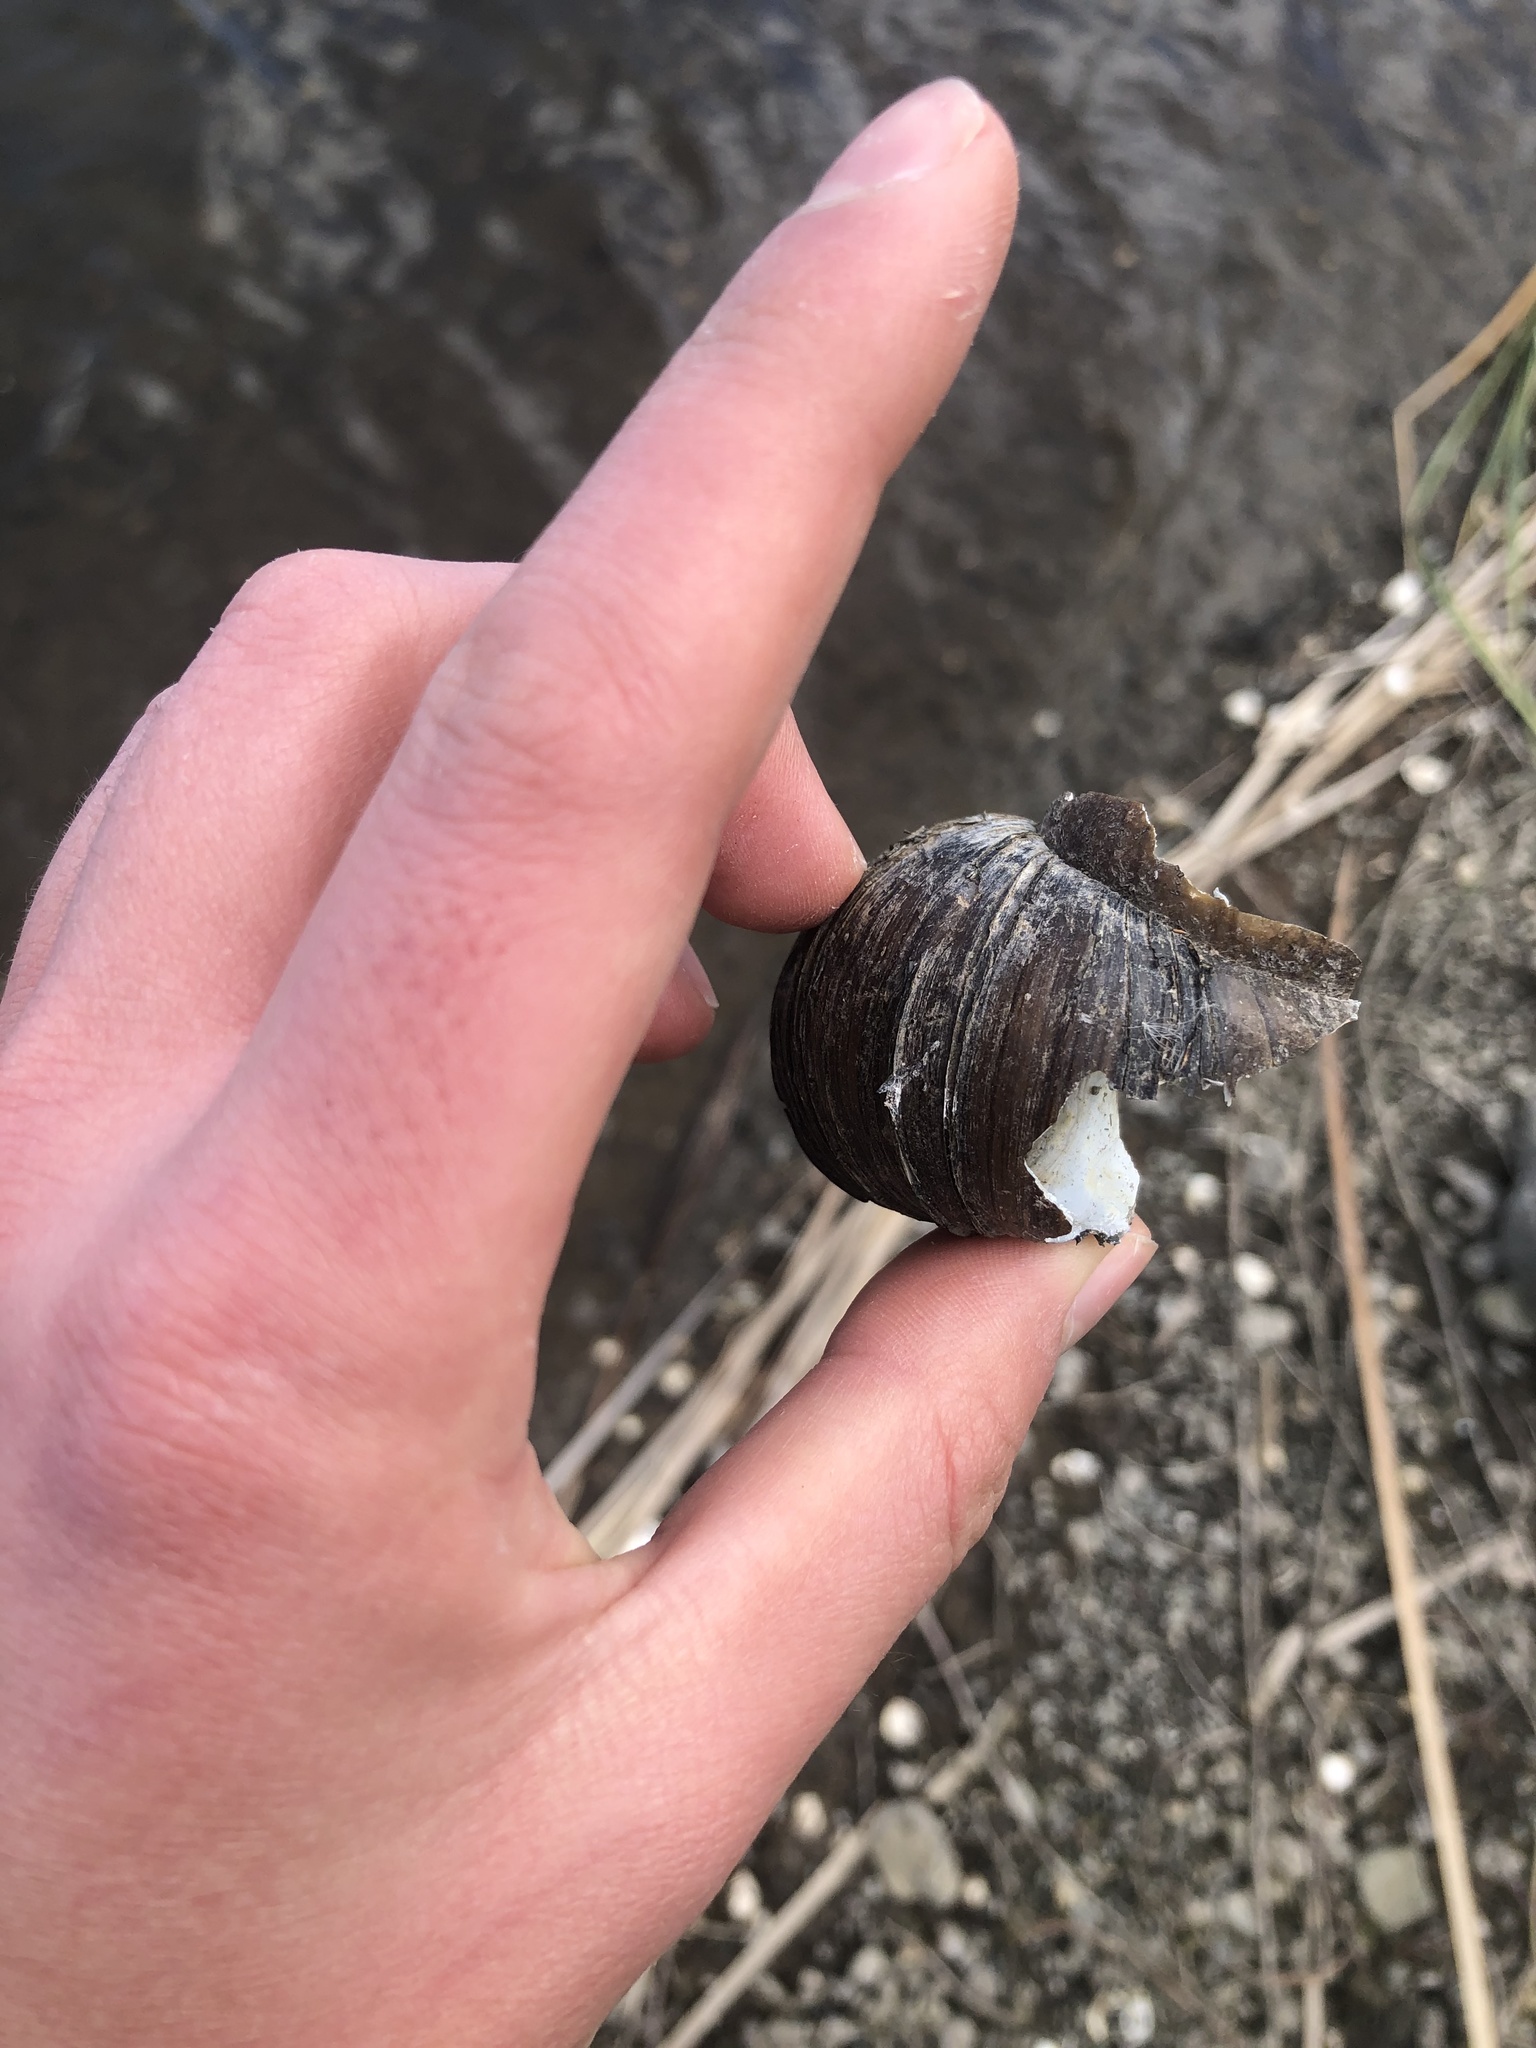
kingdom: Animalia
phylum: Mollusca
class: Gastropoda
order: Architaenioglossa
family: Viviparidae
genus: Cipangopaludina
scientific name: Cipangopaludina chinensis
